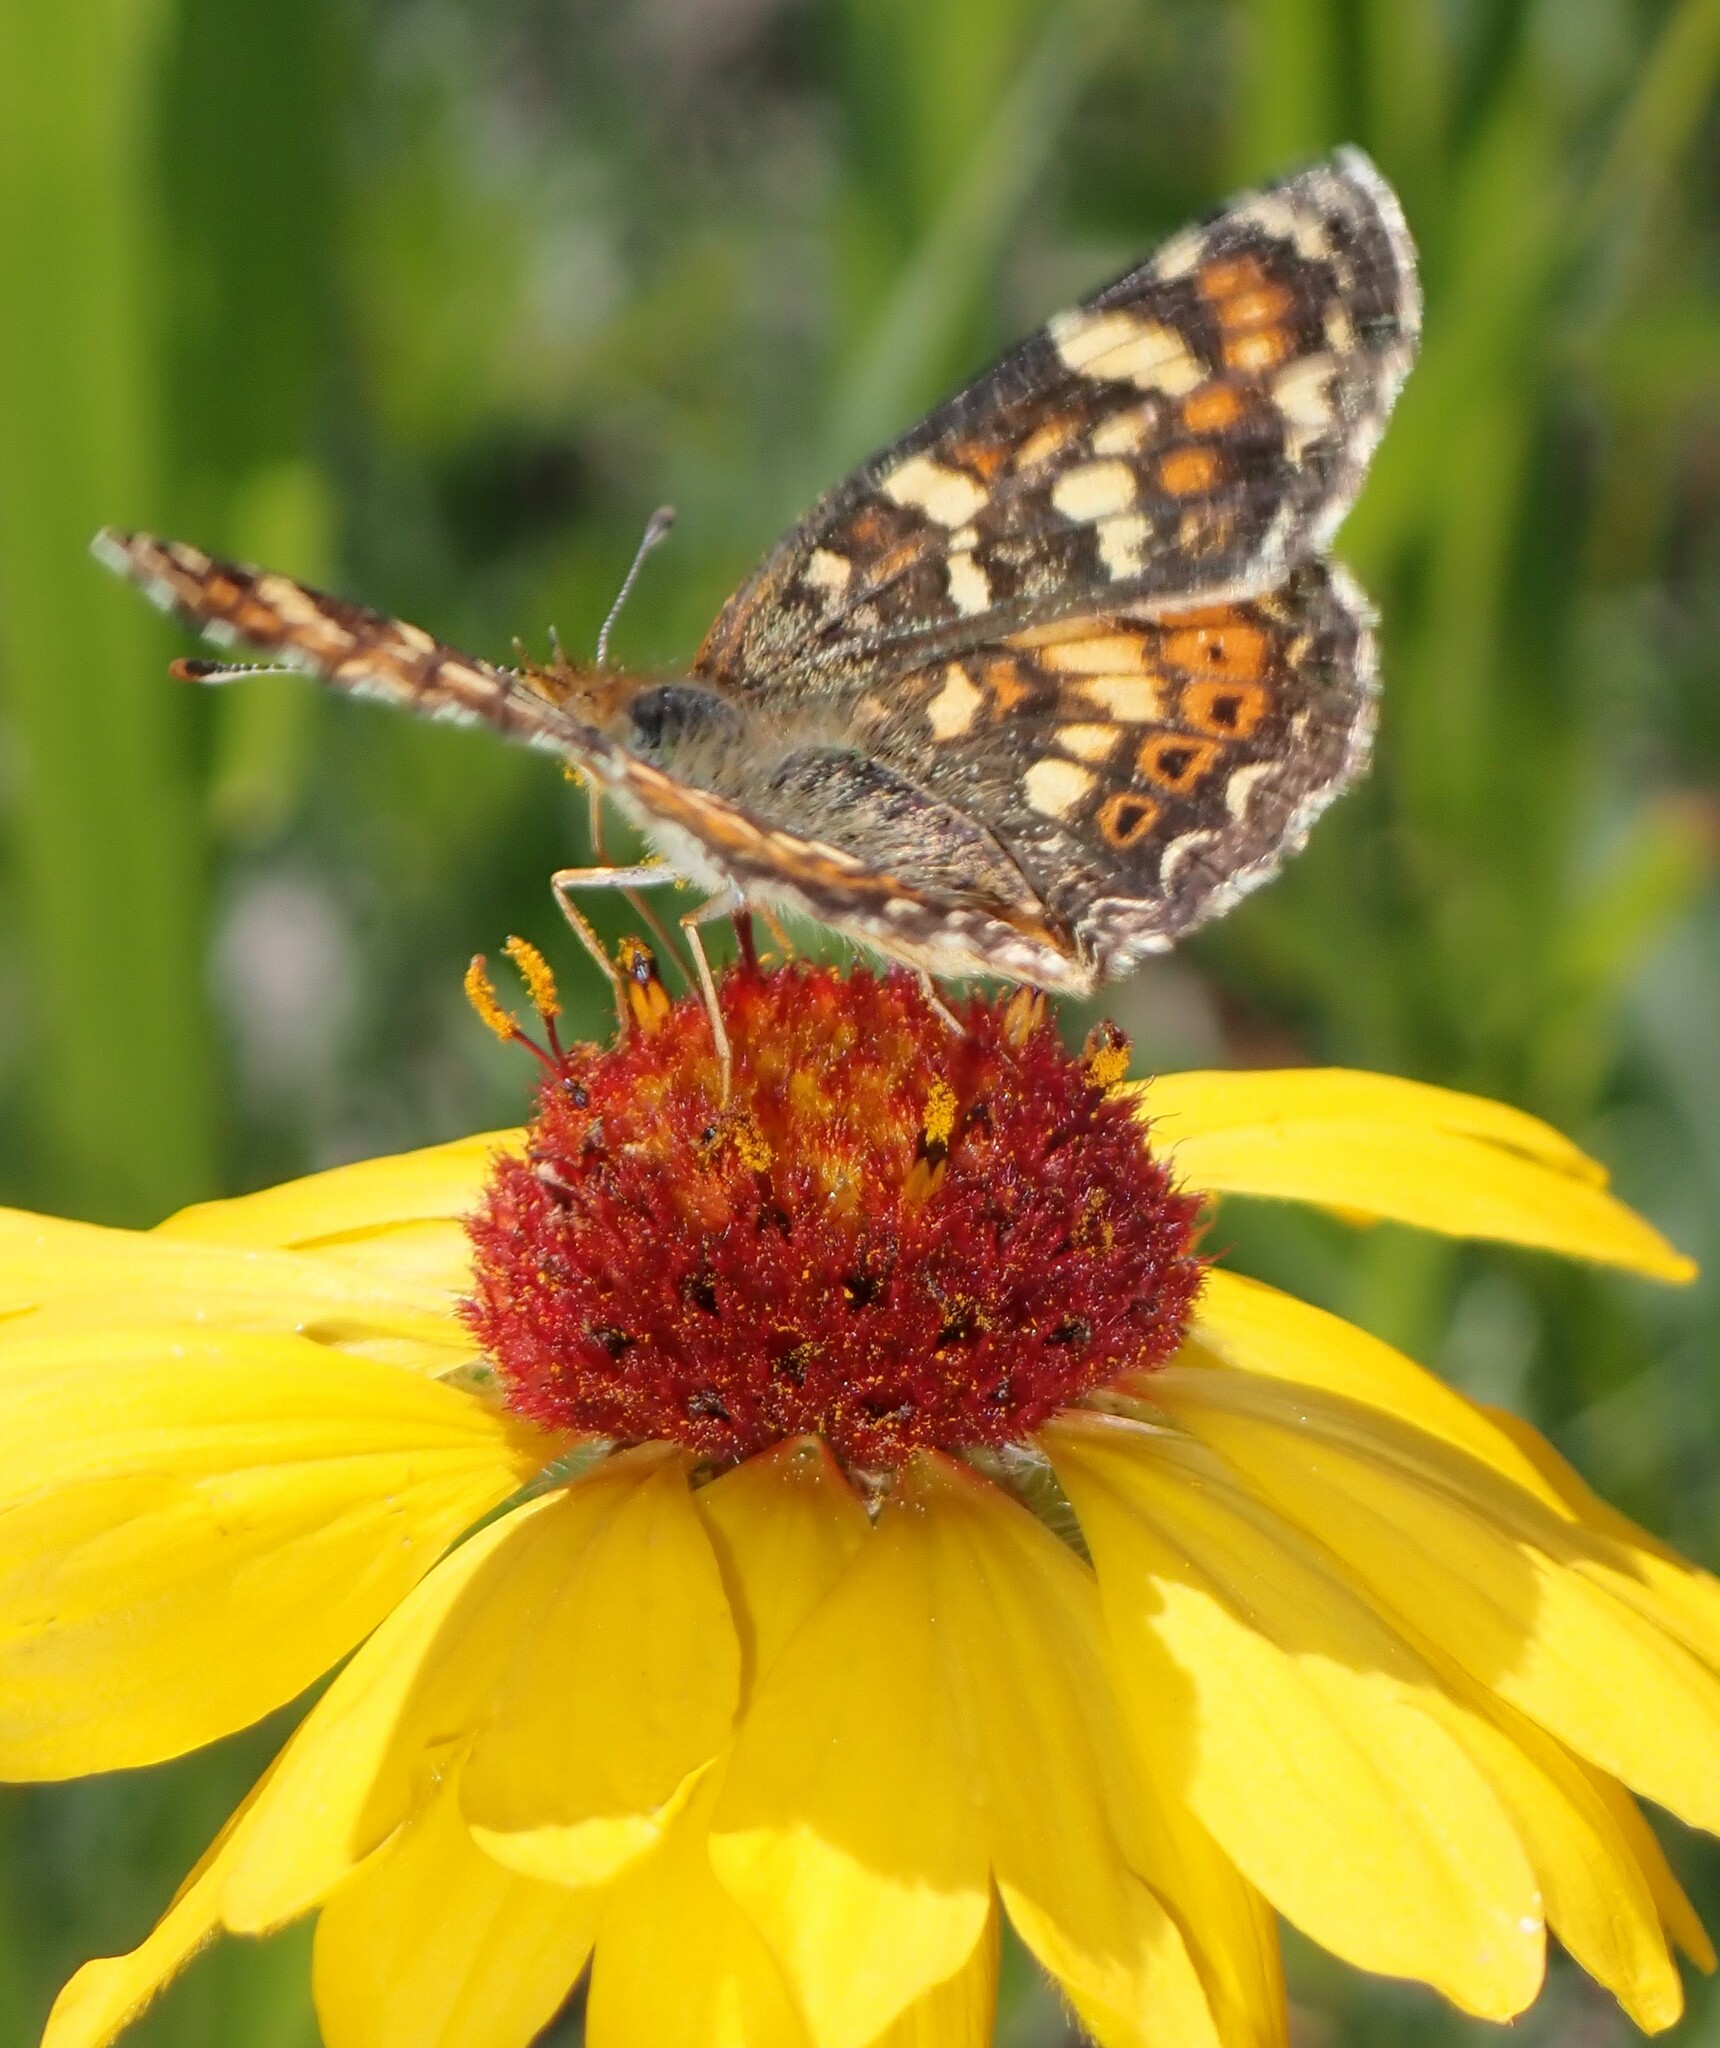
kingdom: Animalia
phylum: Arthropoda
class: Insecta
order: Lepidoptera
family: Nymphalidae
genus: Phyciodes
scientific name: Phyciodes tharos
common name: Pearl crescent
